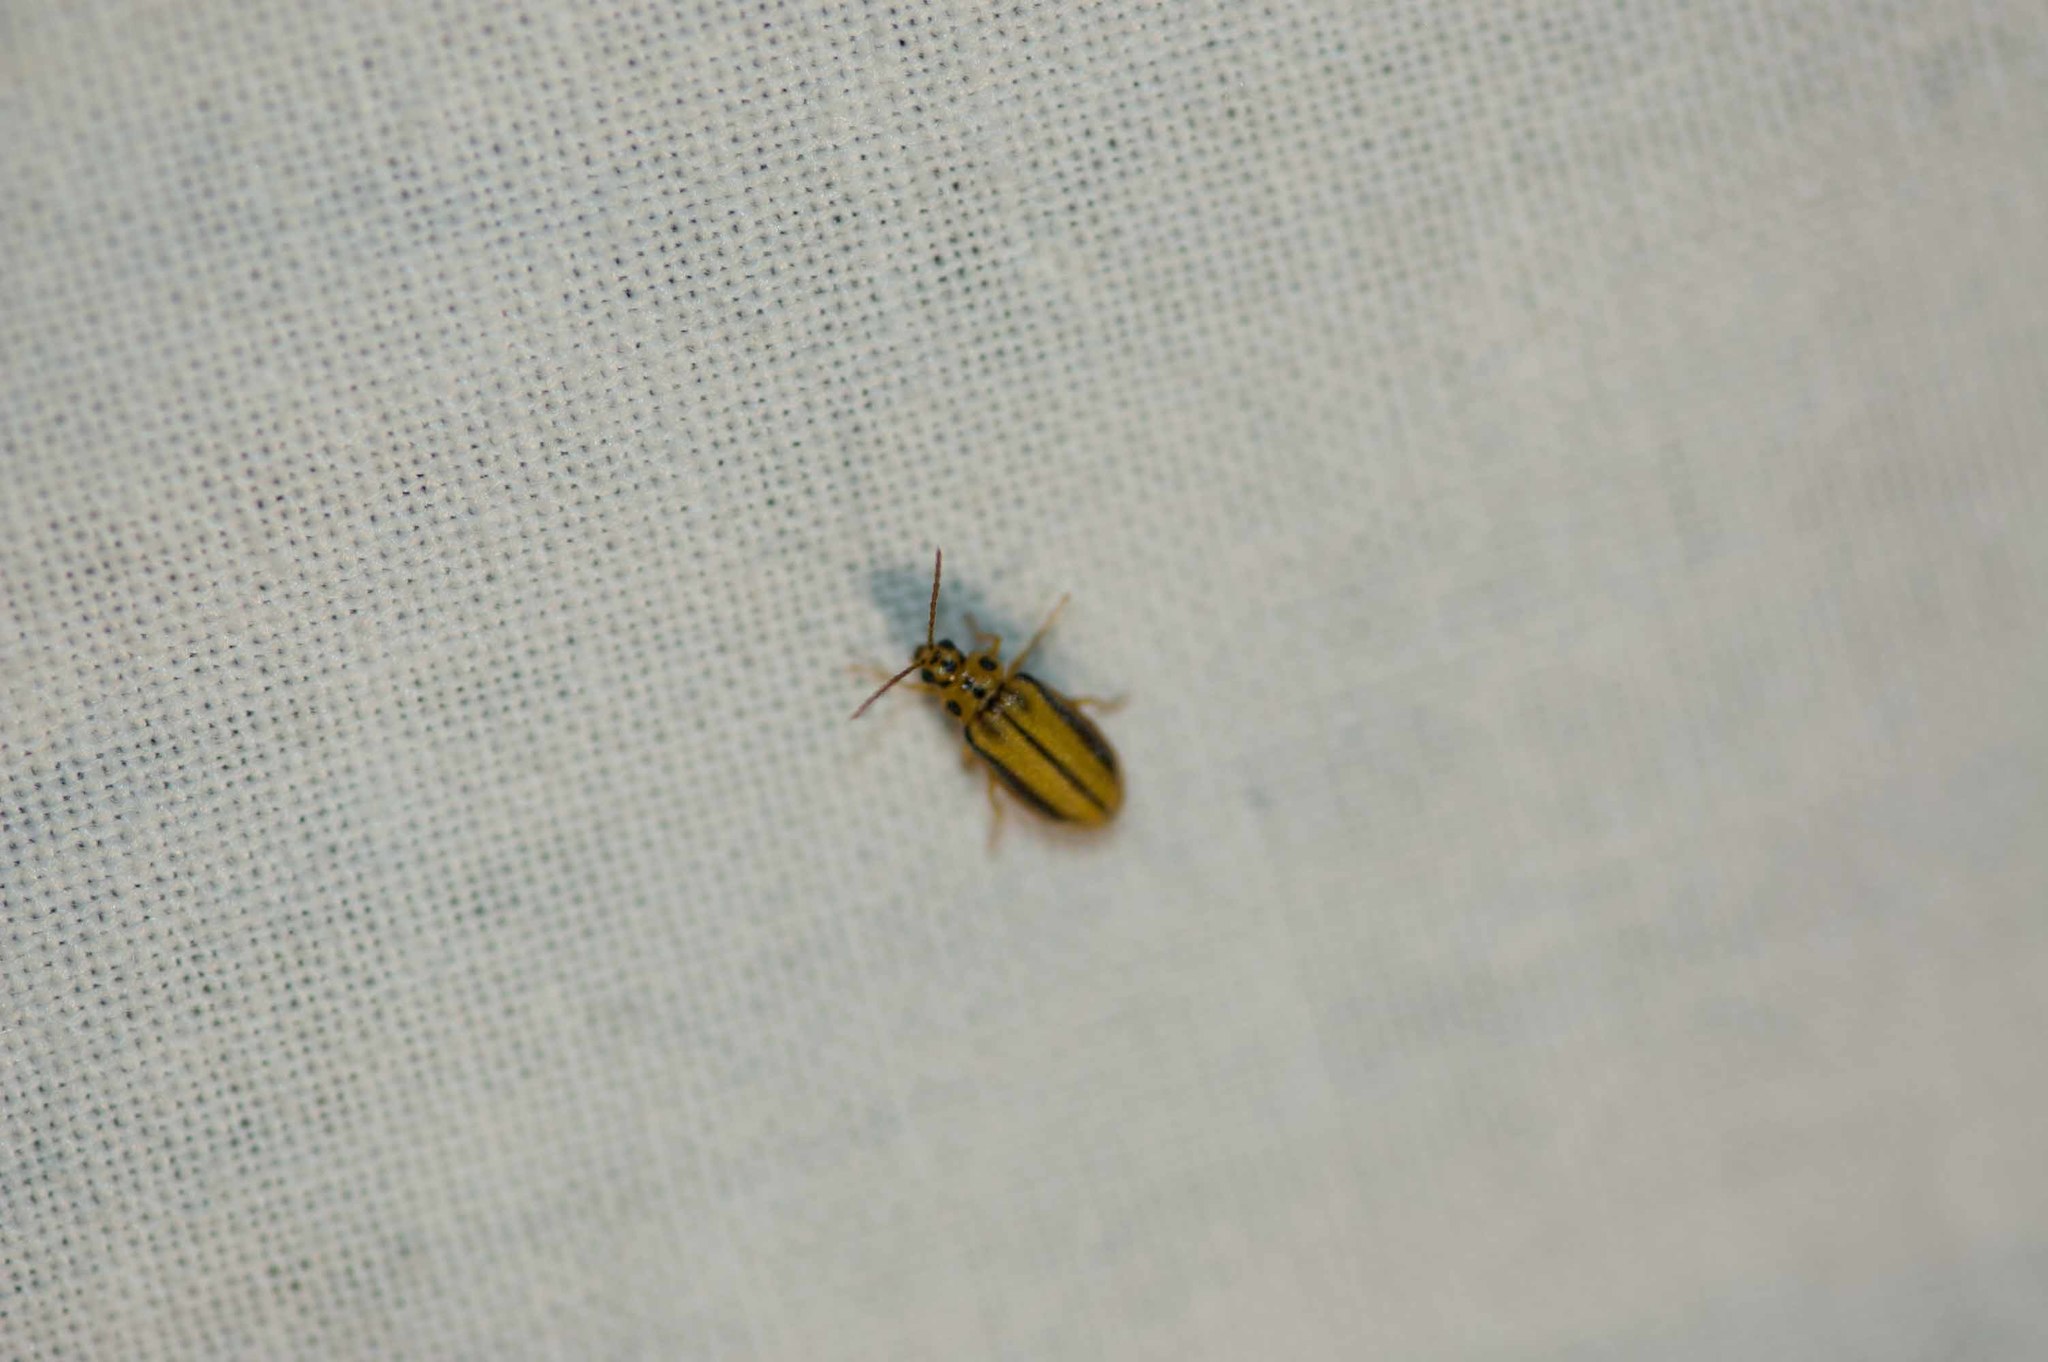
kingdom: Animalia
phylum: Arthropoda
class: Insecta
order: Coleoptera
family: Chrysomelidae
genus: Xanthogaleruca
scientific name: Xanthogaleruca luteola
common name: Elm leaf beetle
